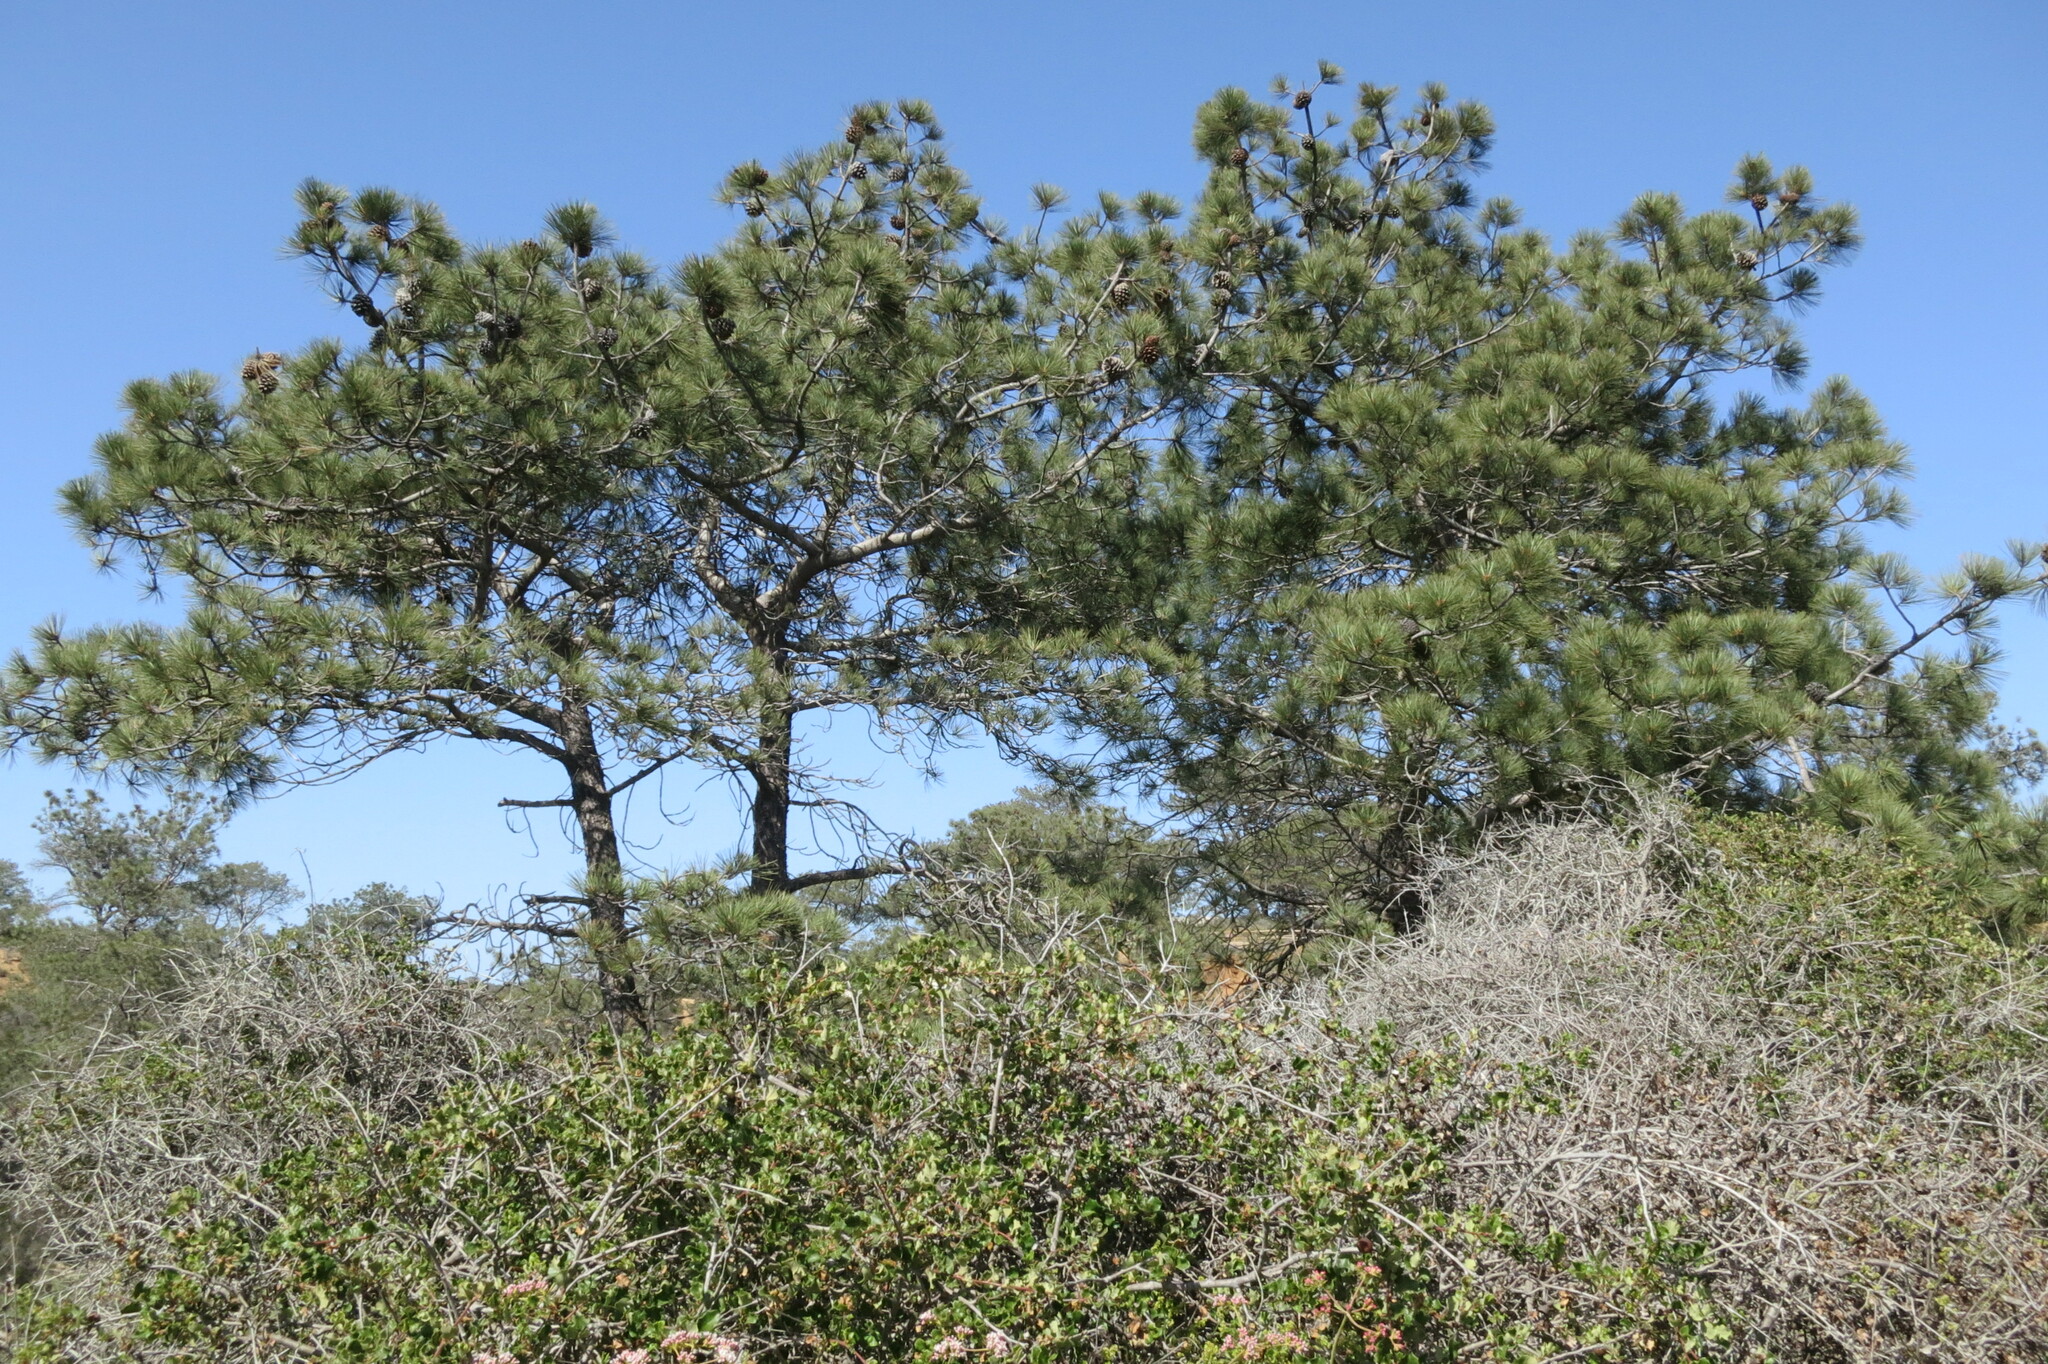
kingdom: Plantae
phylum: Tracheophyta
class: Pinopsida
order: Pinales
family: Pinaceae
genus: Pinus
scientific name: Pinus torreyana
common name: Torrey pine
